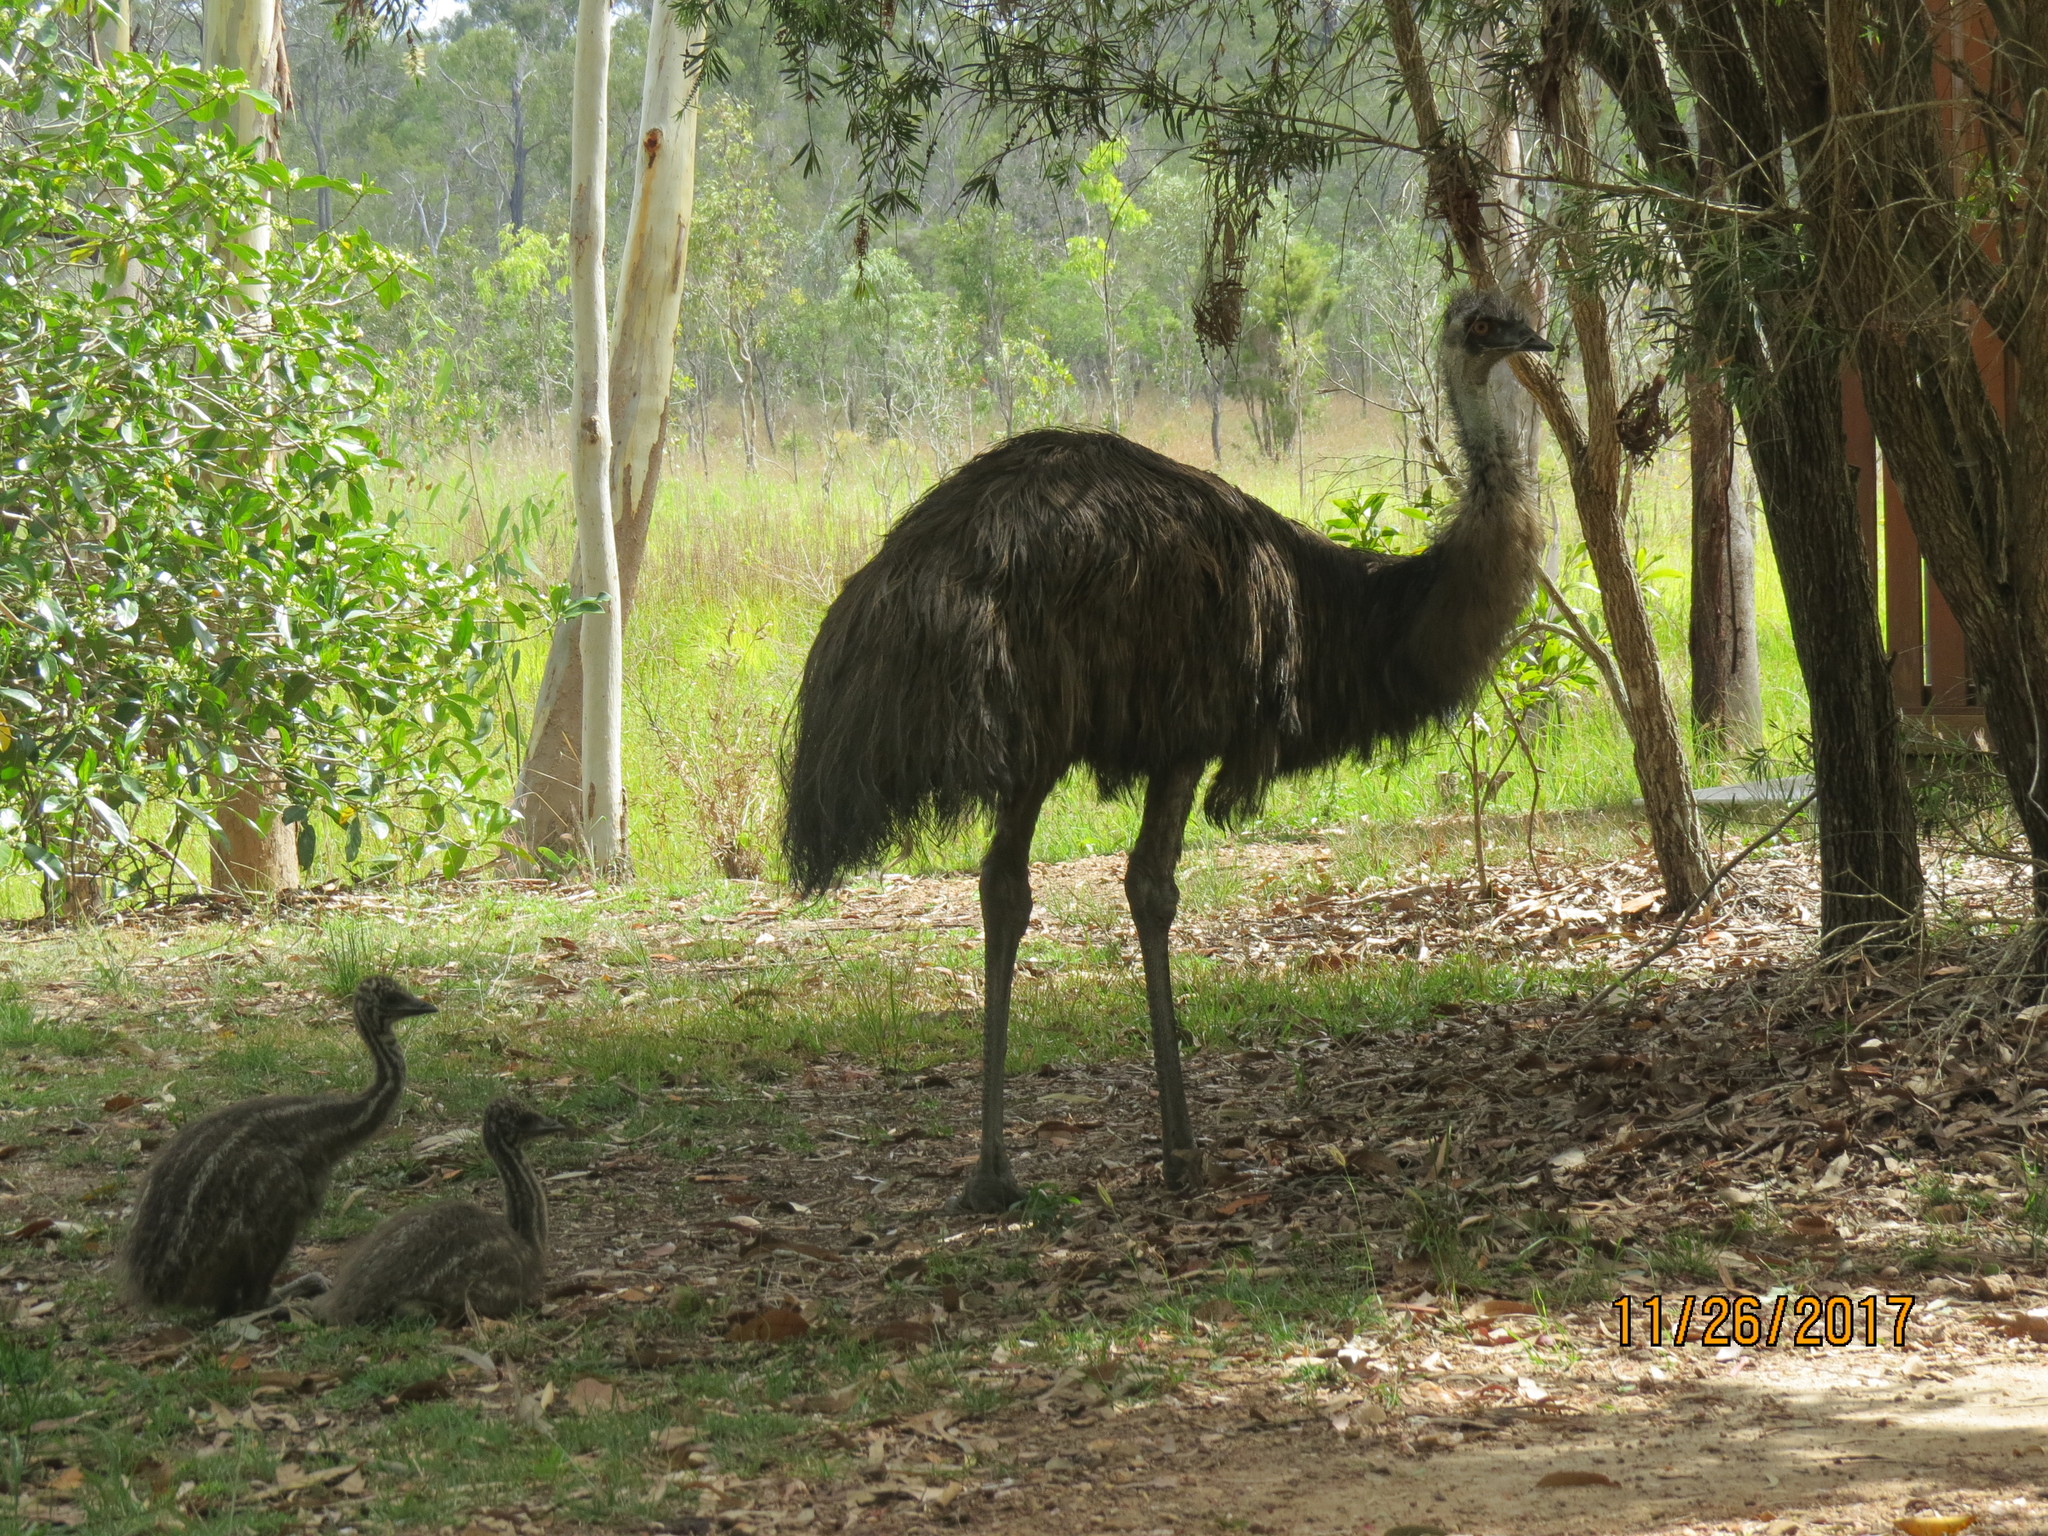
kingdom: Animalia
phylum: Chordata
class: Aves
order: Casuariiformes
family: Dromaiidae
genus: Dromaius
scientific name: Dromaius novaehollandiae
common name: Emu
